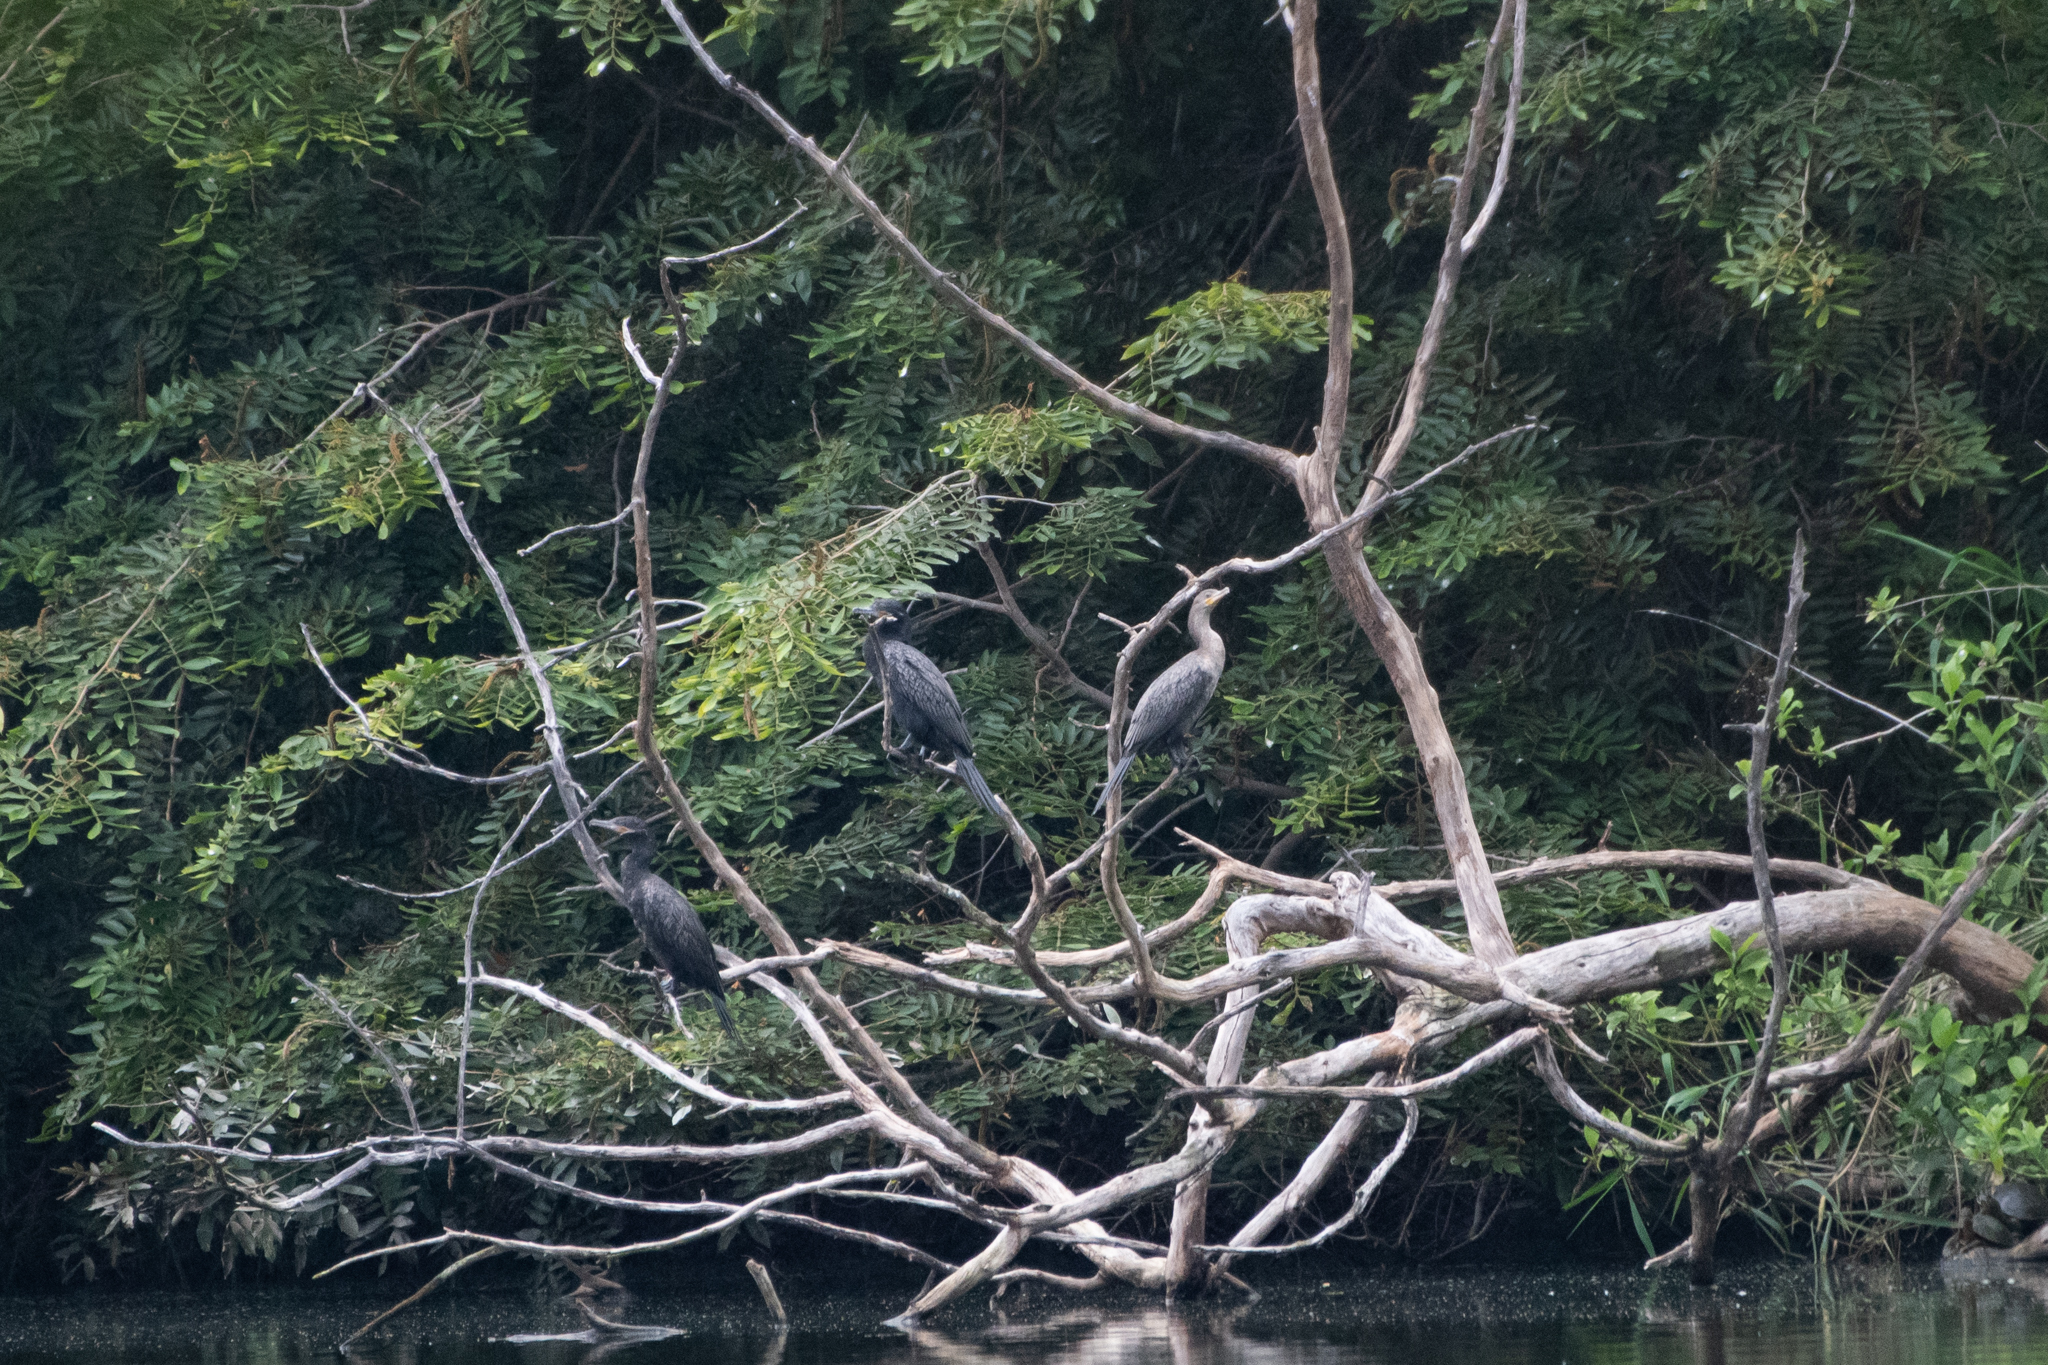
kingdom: Animalia
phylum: Chordata
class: Aves
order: Suliformes
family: Phalacrocoracidae
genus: Phalacrocorax
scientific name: Phalacrocorax brasilianus
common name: Neotropic cormorant
